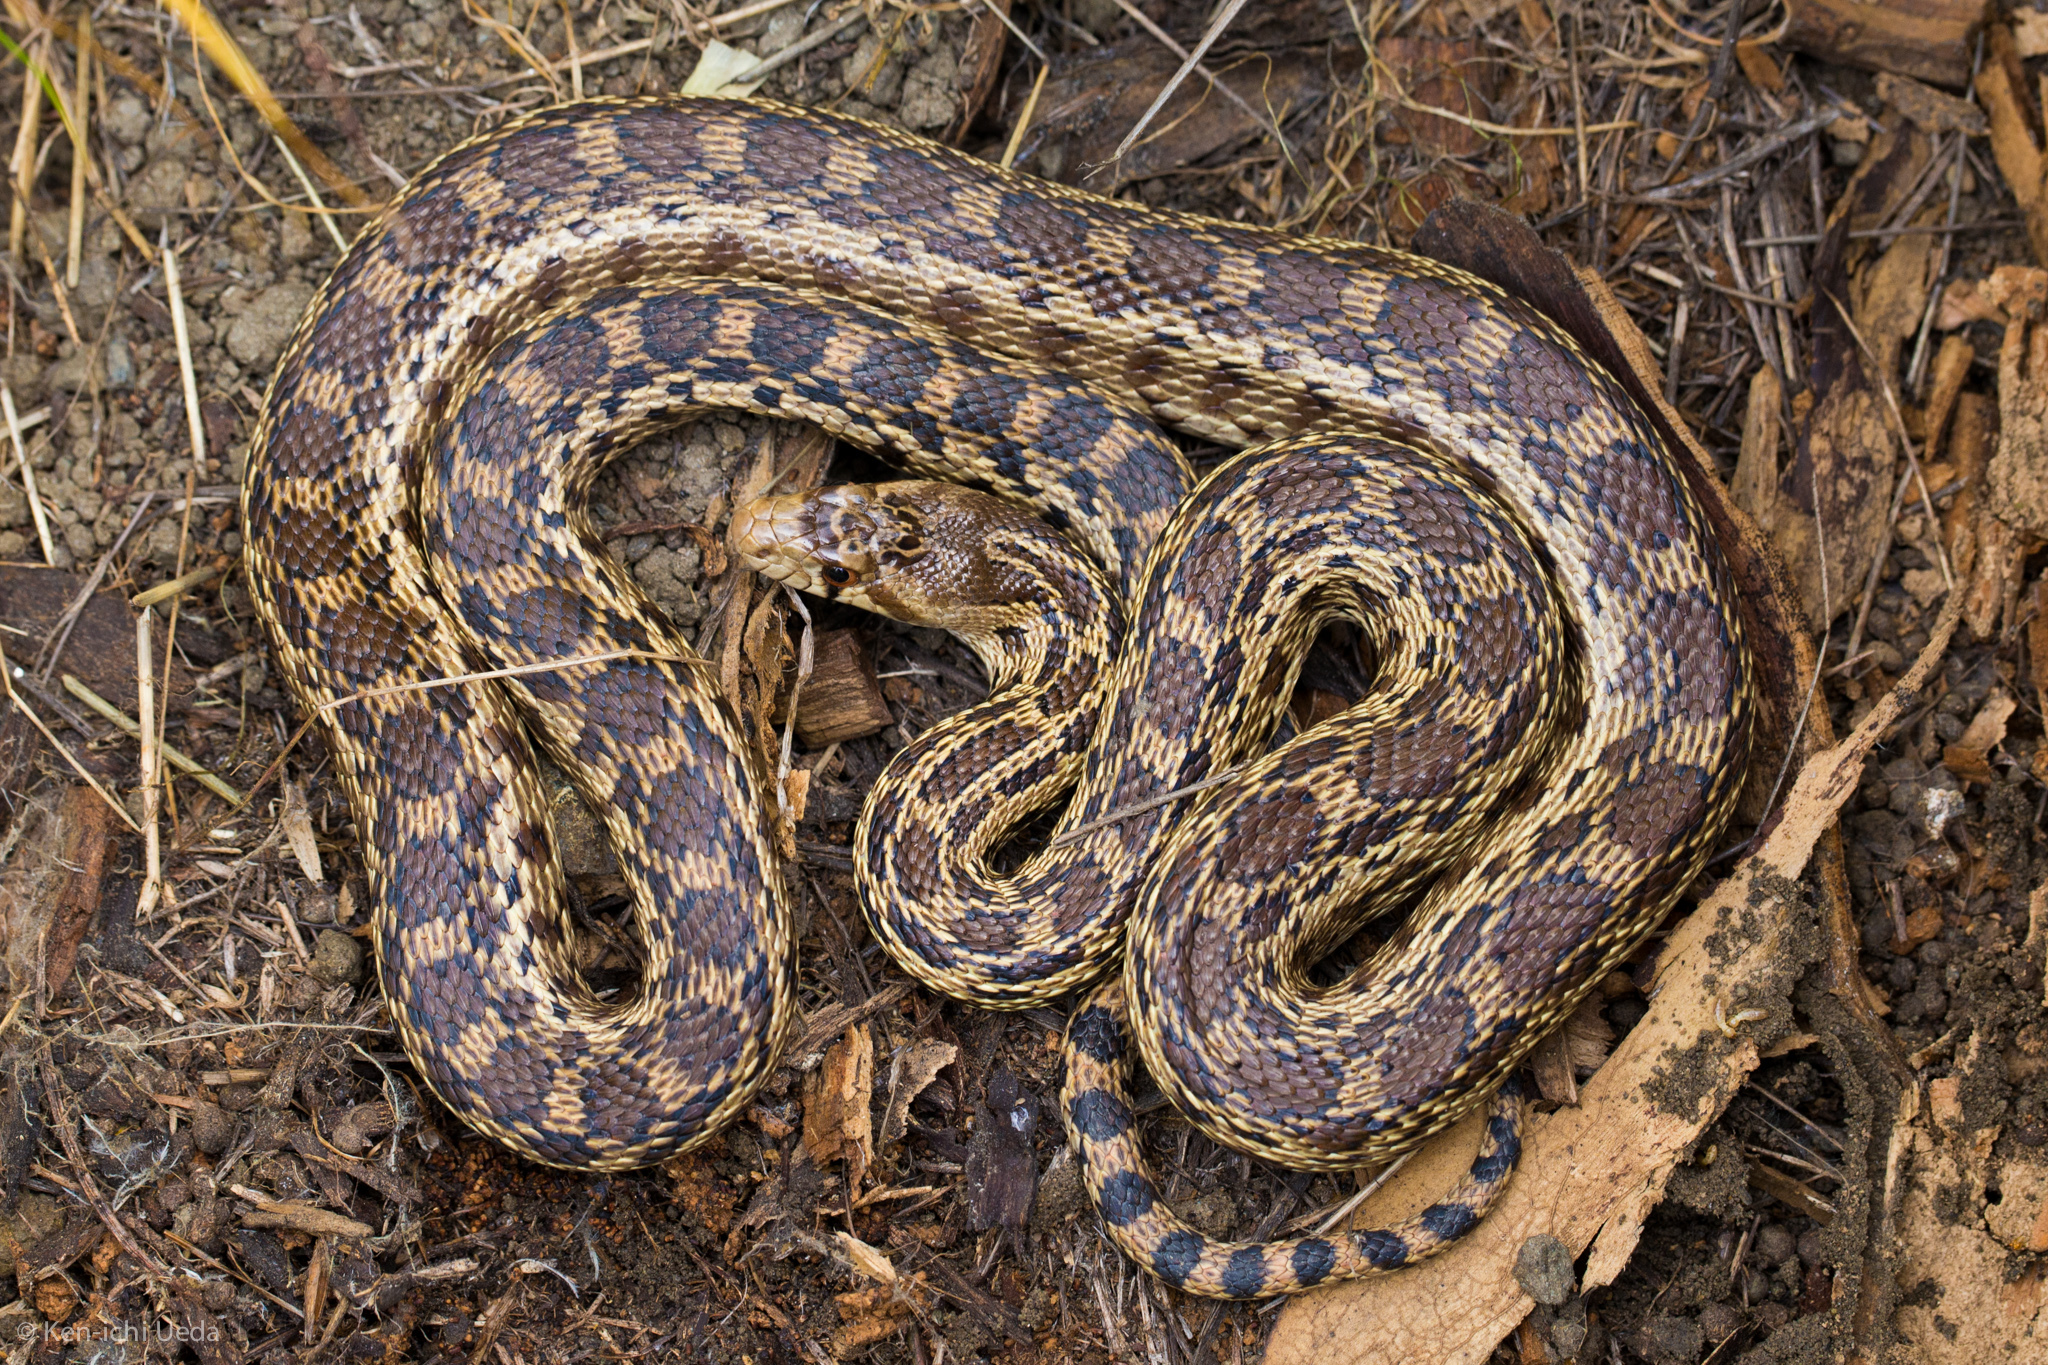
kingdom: Animalia
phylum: Chordata
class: Squamata
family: Colubridae
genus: Pituophis
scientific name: Pituophis catenifer
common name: Gopher snake
